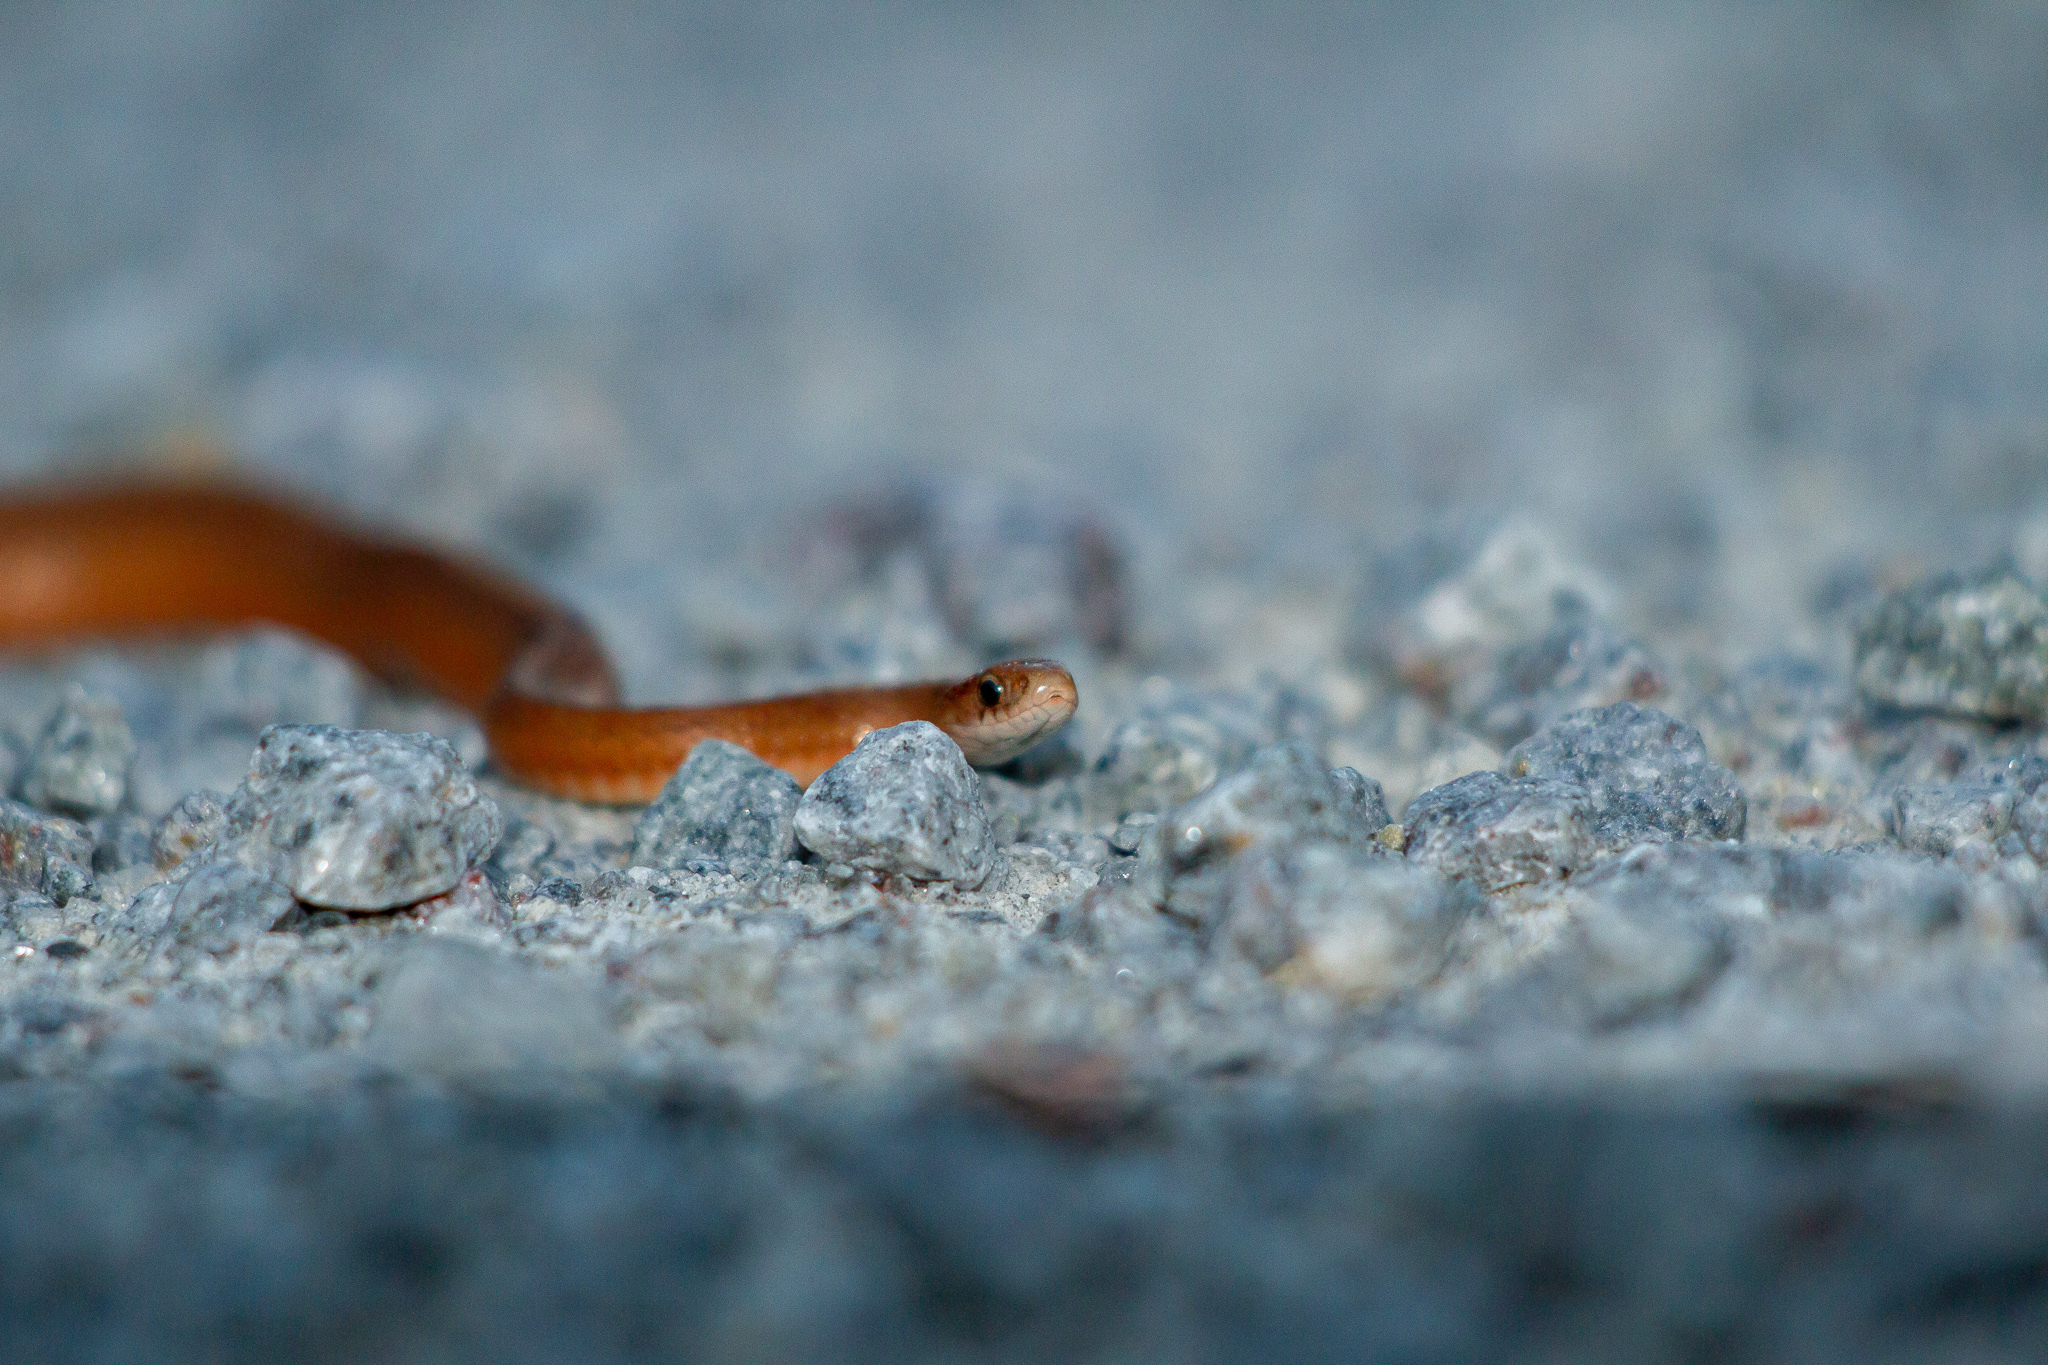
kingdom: Animalia
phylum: Chordata
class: Squamata
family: Colubridae
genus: Storeria
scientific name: Storeria dekayi
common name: (dekay’s) brown snake
